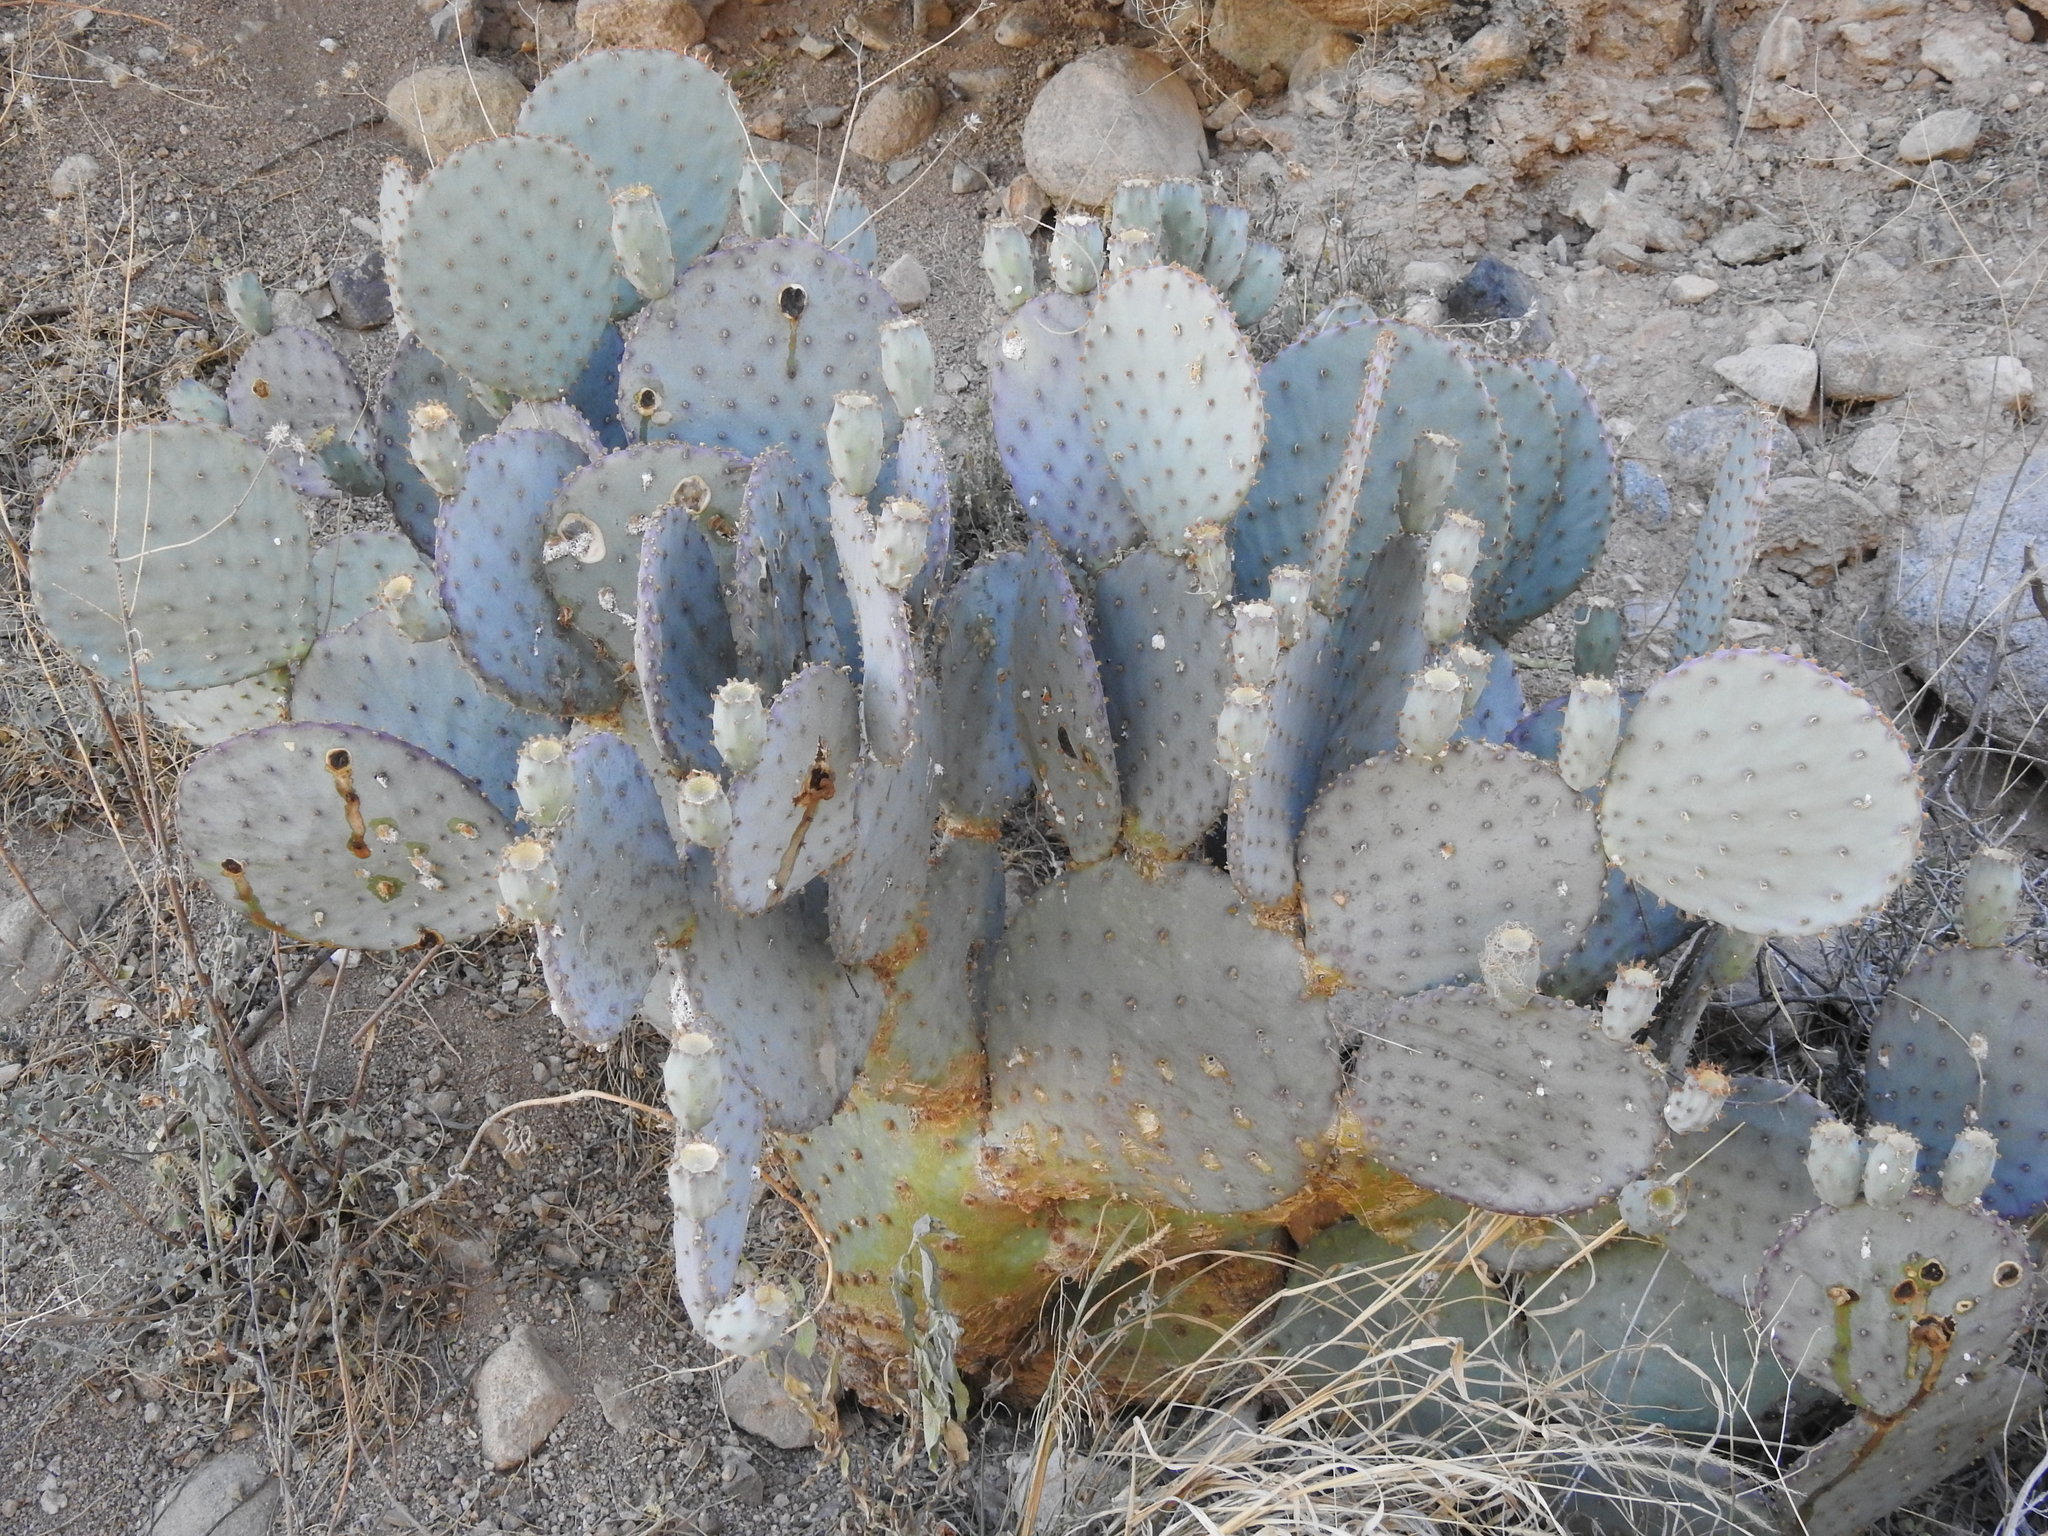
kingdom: Plantae
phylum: Tracheophyta
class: Magnoliopsida
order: Caryophyllales
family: Cactaceae
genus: Opuntia
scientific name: Opuntia chlorotica
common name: Dollar-joint prickly-pear
